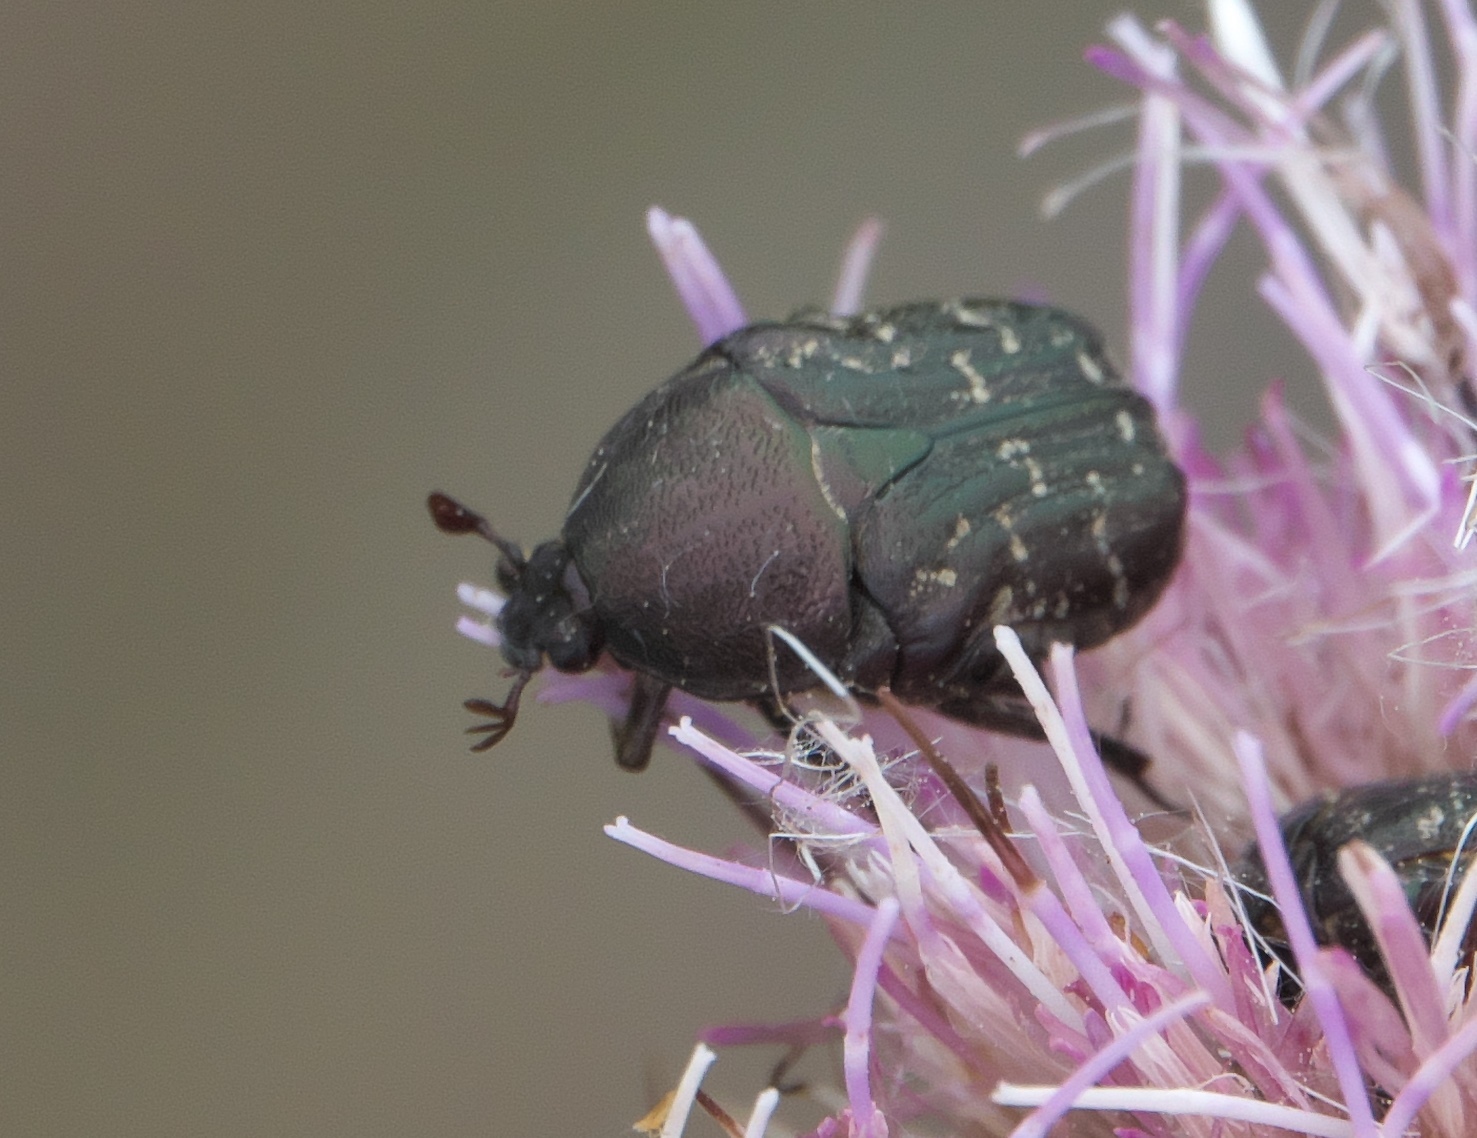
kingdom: Animalia
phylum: Arthropoda
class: Insecta
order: Coleoptera
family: Scarabaeidae
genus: Euphoria
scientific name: Euphoria sepulcralis
